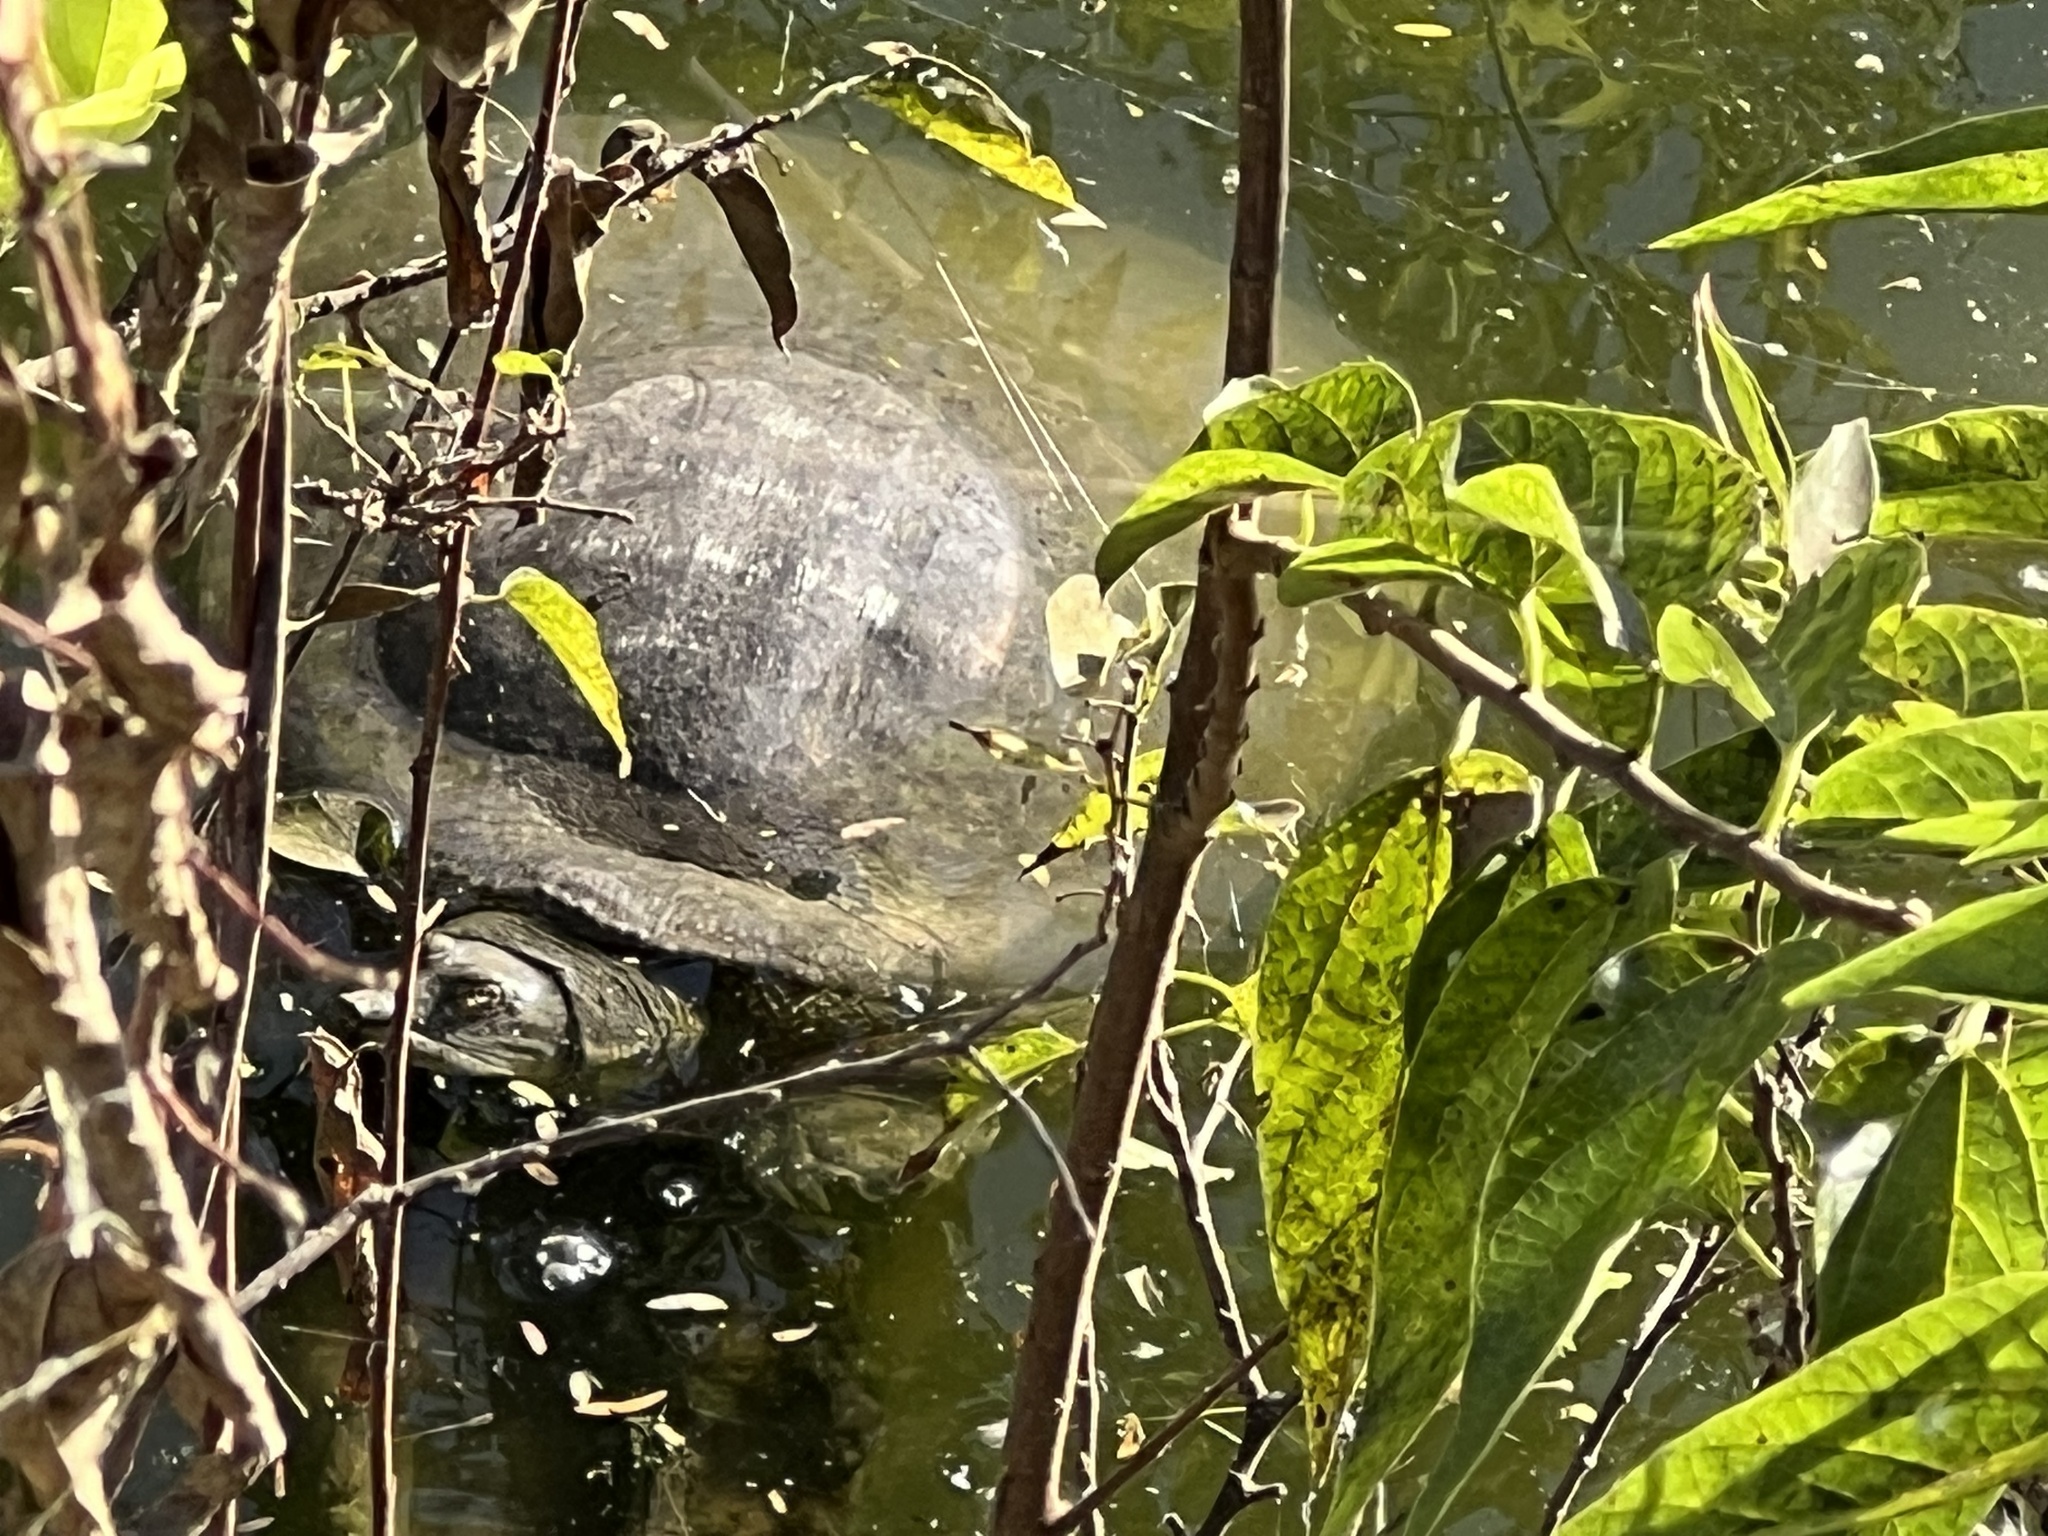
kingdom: Animalia
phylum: Chordata
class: Testudines
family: Trionychidae
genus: Apalone
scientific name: Apalone spinifera
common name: Spiny softshell turtle
